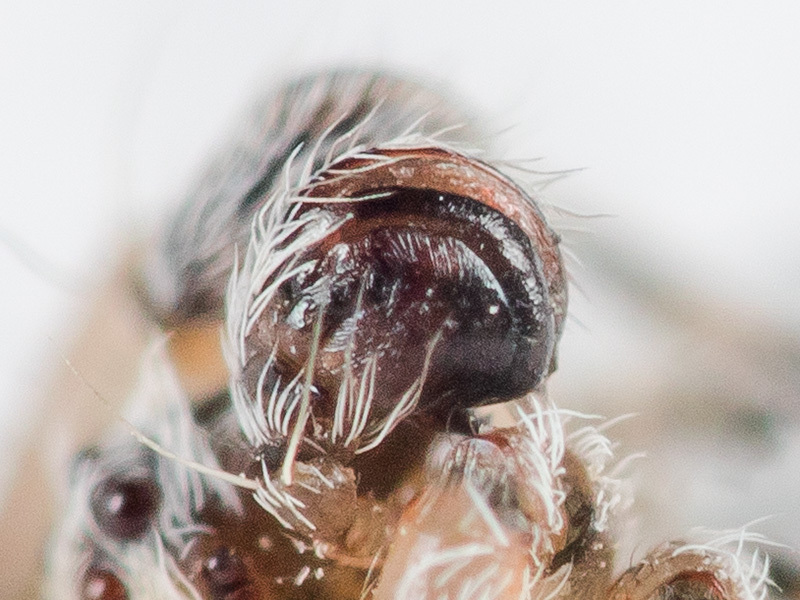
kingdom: Animalia
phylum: Arthropoda
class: Arachnida
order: Araneae
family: Araneidae
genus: Araneus
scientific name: Araneus strandiellus
